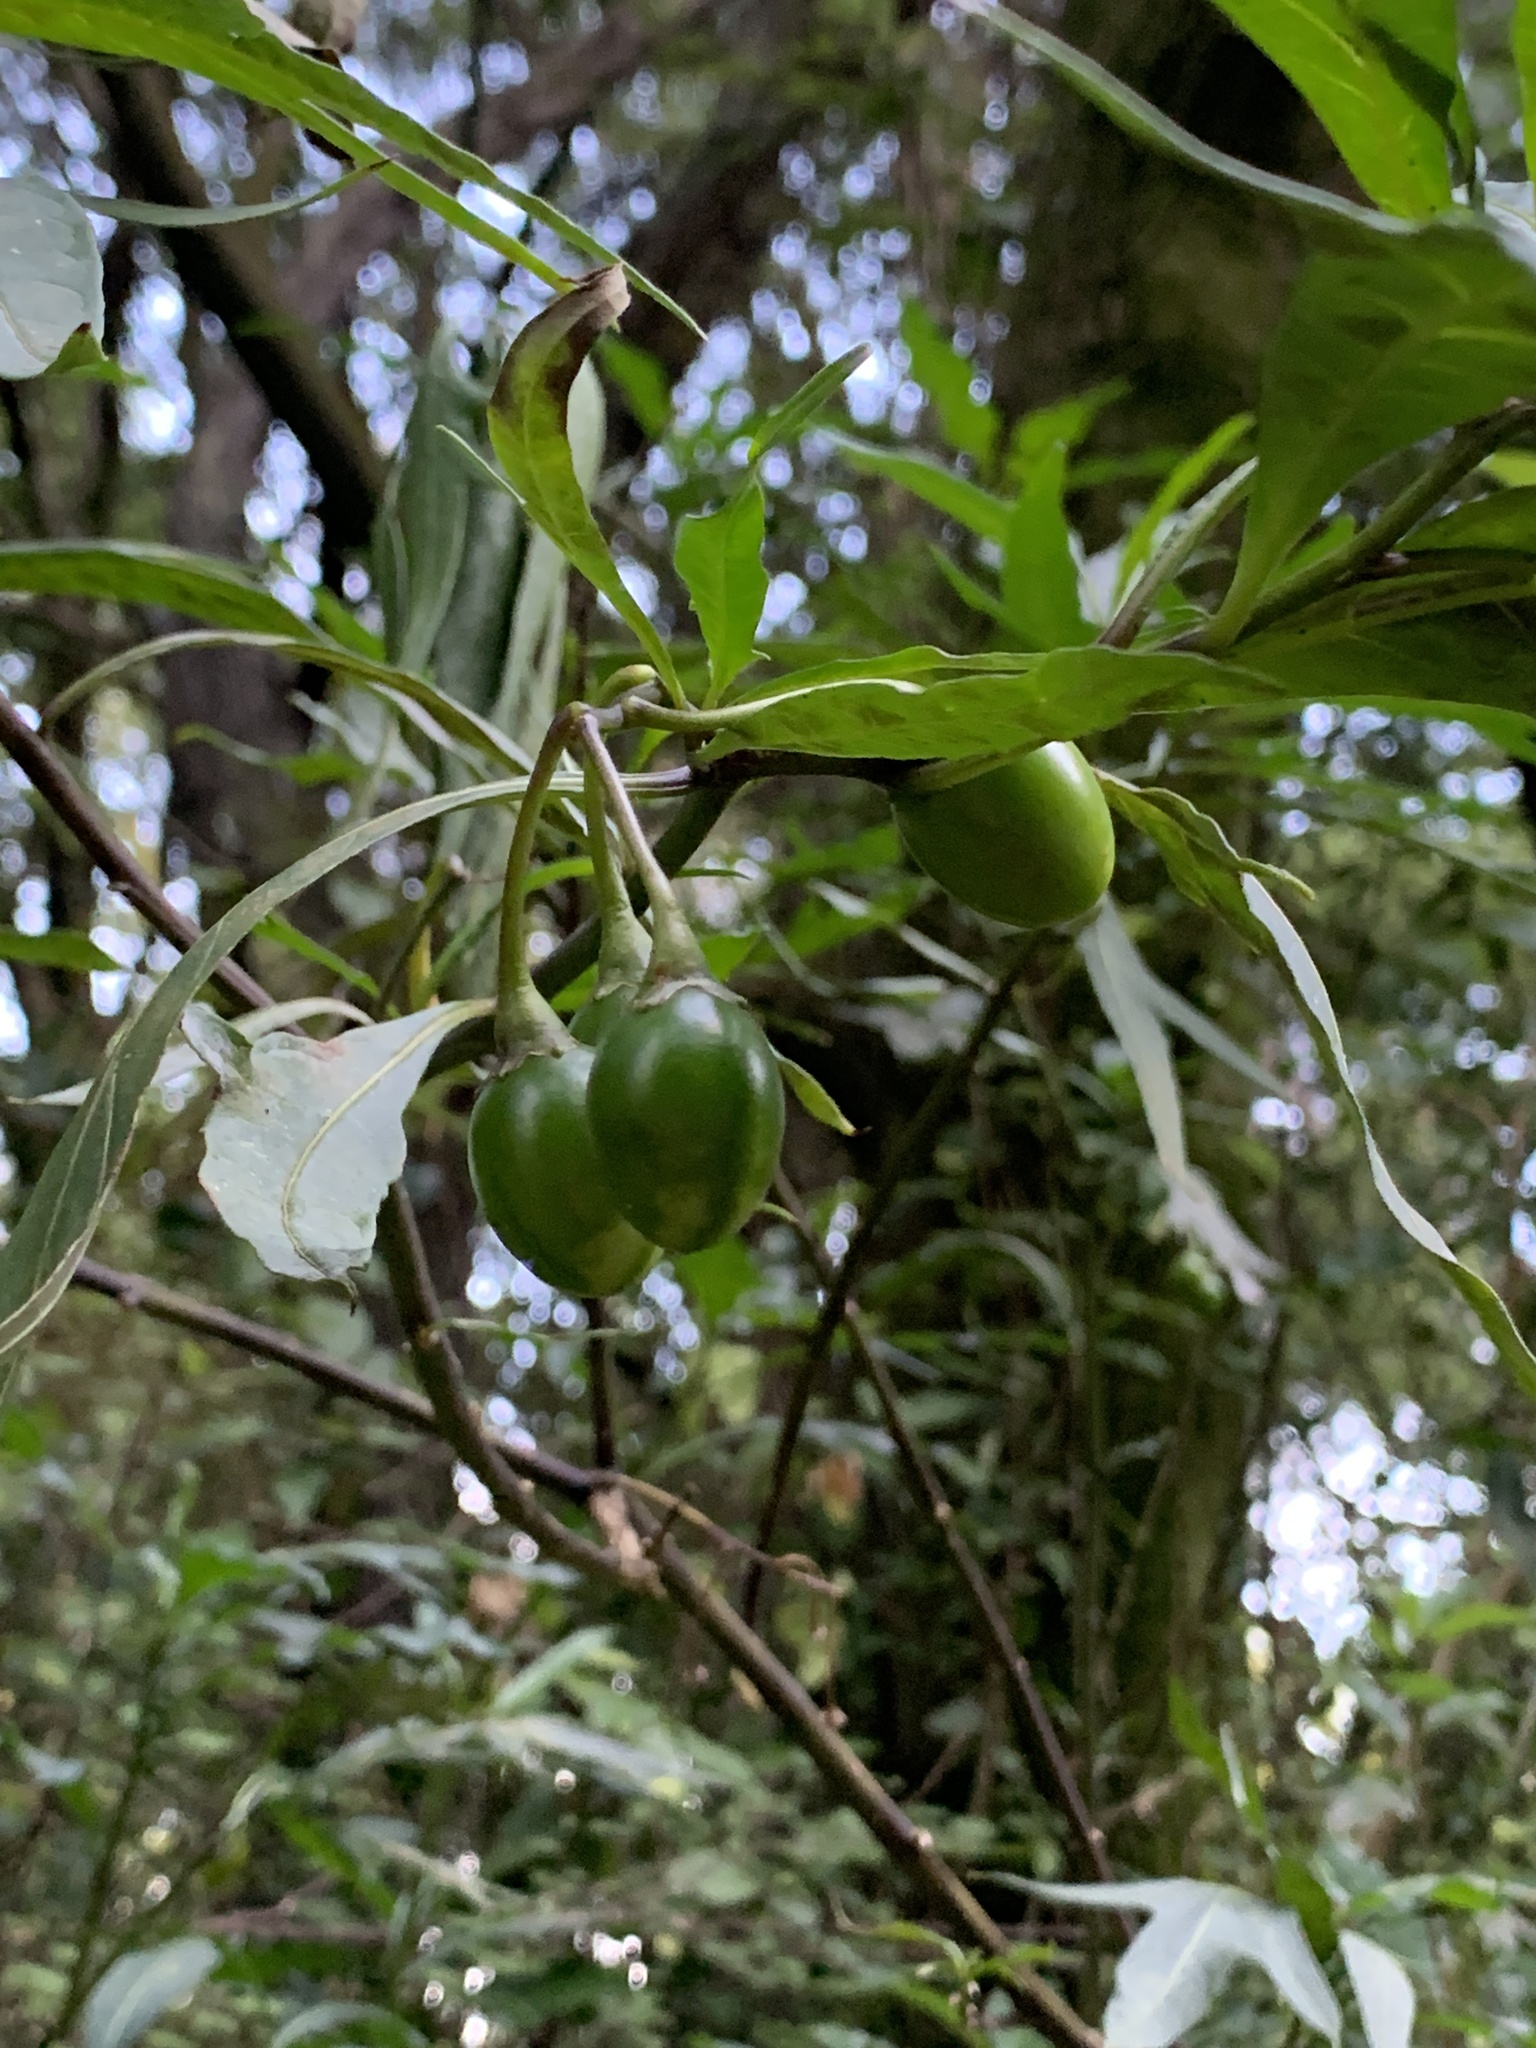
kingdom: Plantae
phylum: Tracheophyta
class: Magnoliopsida
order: Solanales
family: Solanaceae
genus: Solanum
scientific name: Solanum laciniatum
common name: Kangaroo-apple
